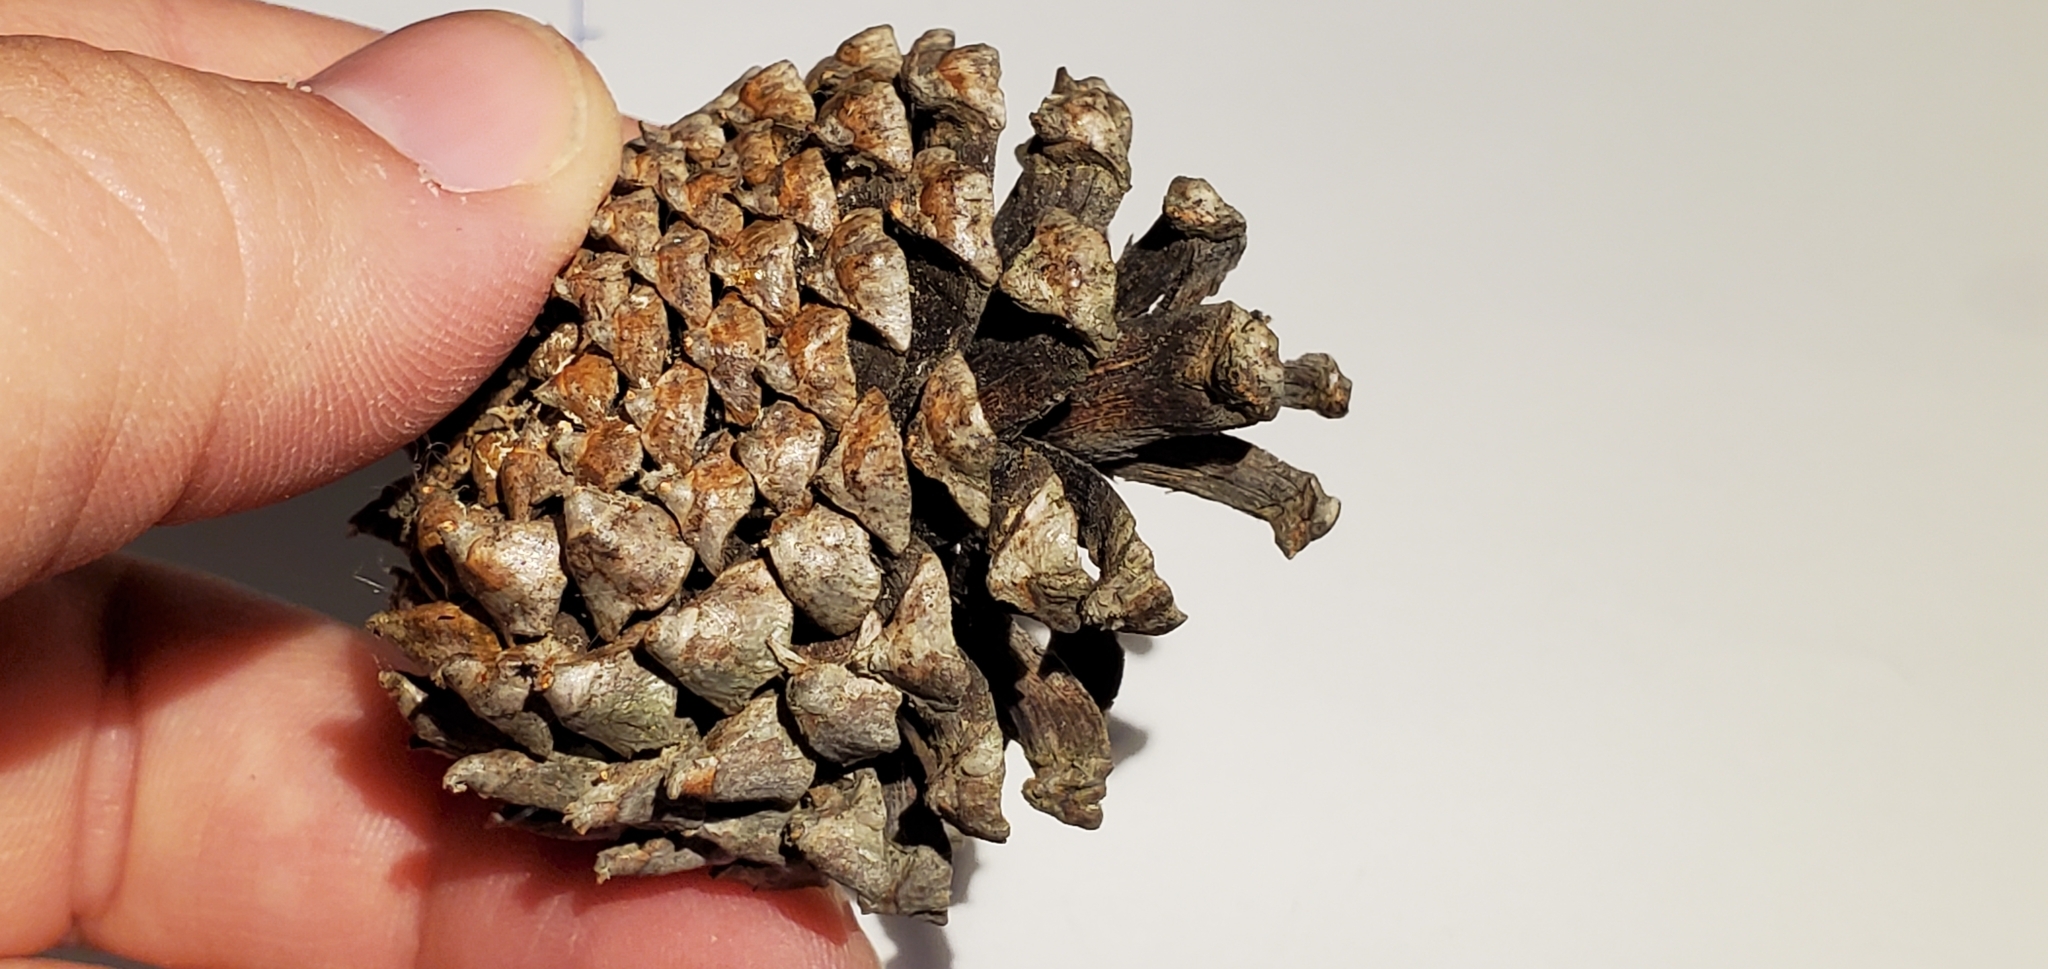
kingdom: Plantae
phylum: Tracheophyta
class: Pinopsida
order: Pinales
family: Pinaceae
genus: Pinus
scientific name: Pinus contorta
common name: Lodgepole pine
